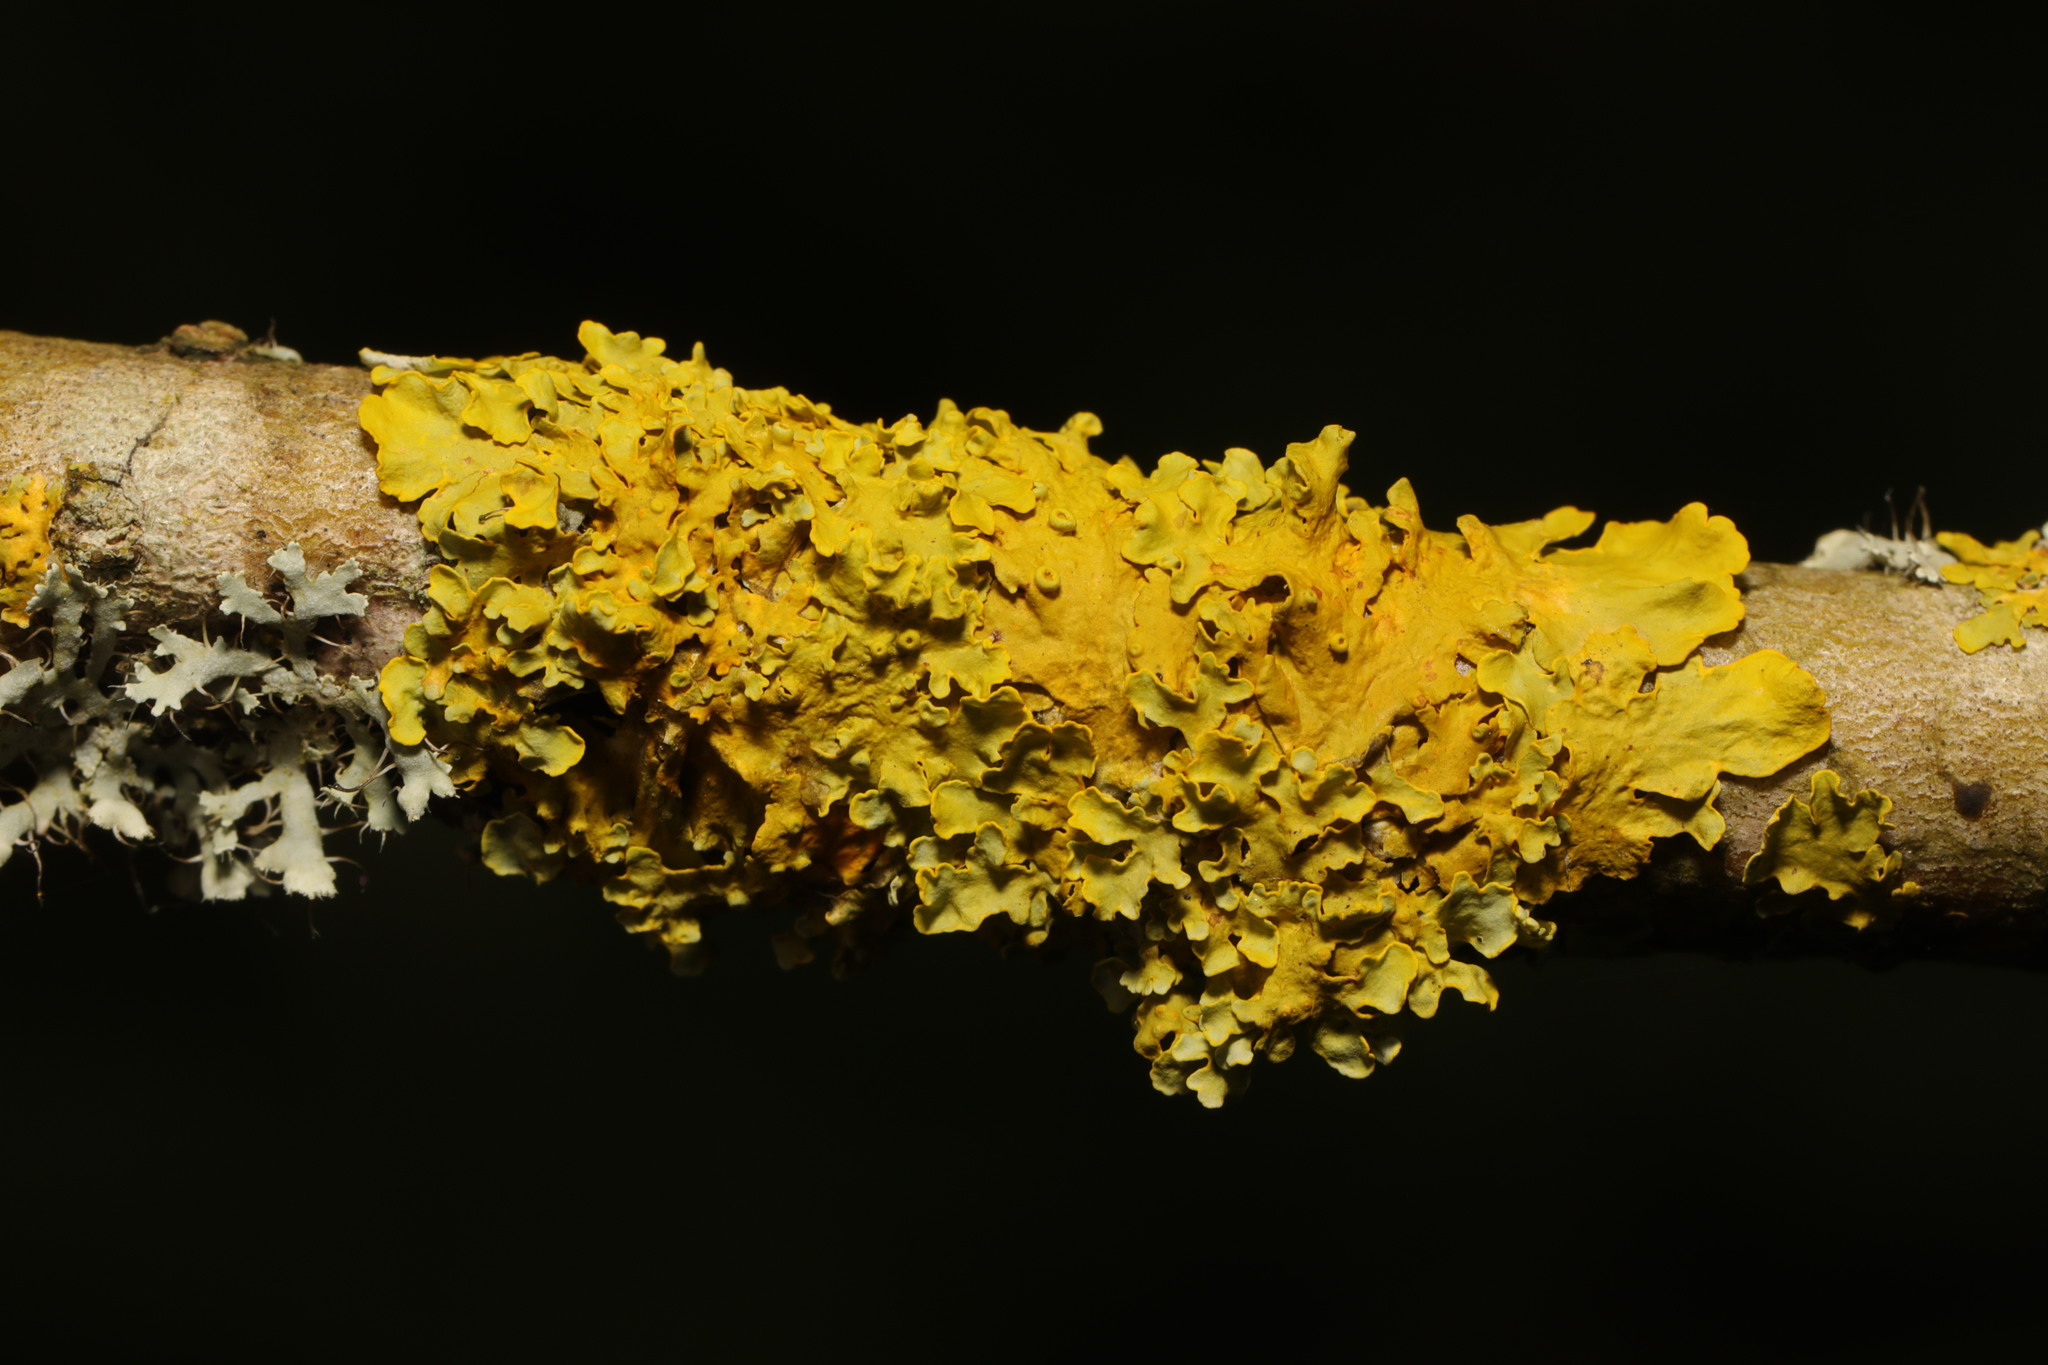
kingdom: Fungi
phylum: Ascomycota
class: Lecanoromycetes
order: Teloschistales
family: Teloschistaceae
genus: Xanthoria
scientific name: Xanthoria parietina
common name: Common orange lichen
